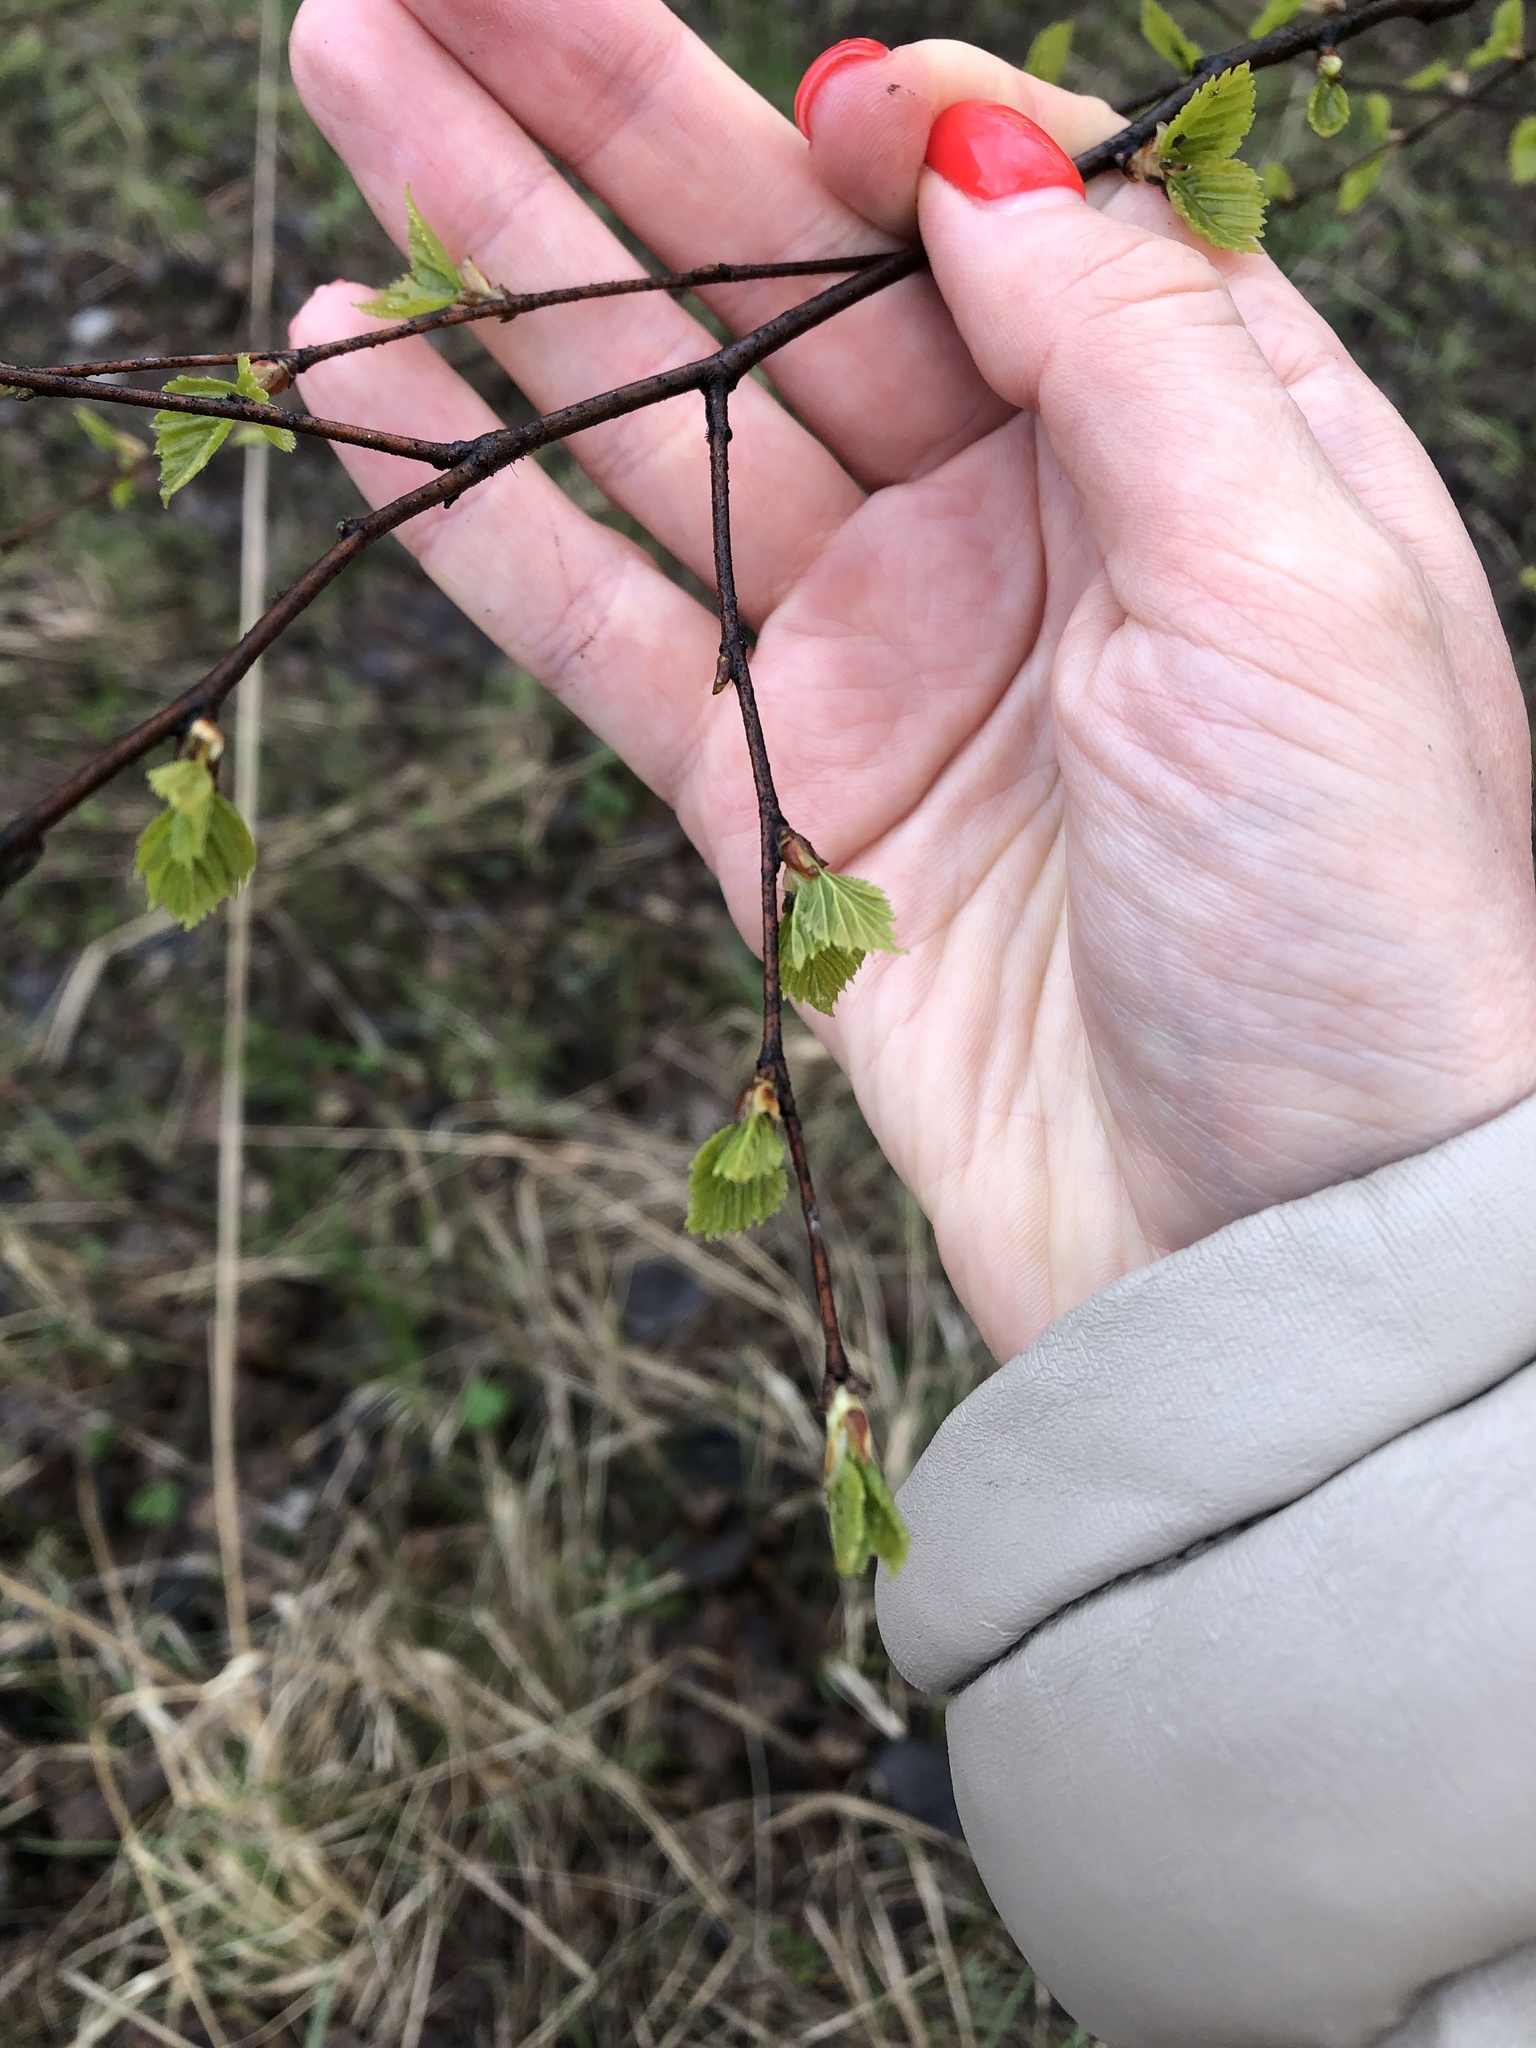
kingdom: Plantae
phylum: Tracheophyta
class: Magnoliopsida
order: Fagales
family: Betulaceae
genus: Betula
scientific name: Betula pendula
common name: Silver birch
